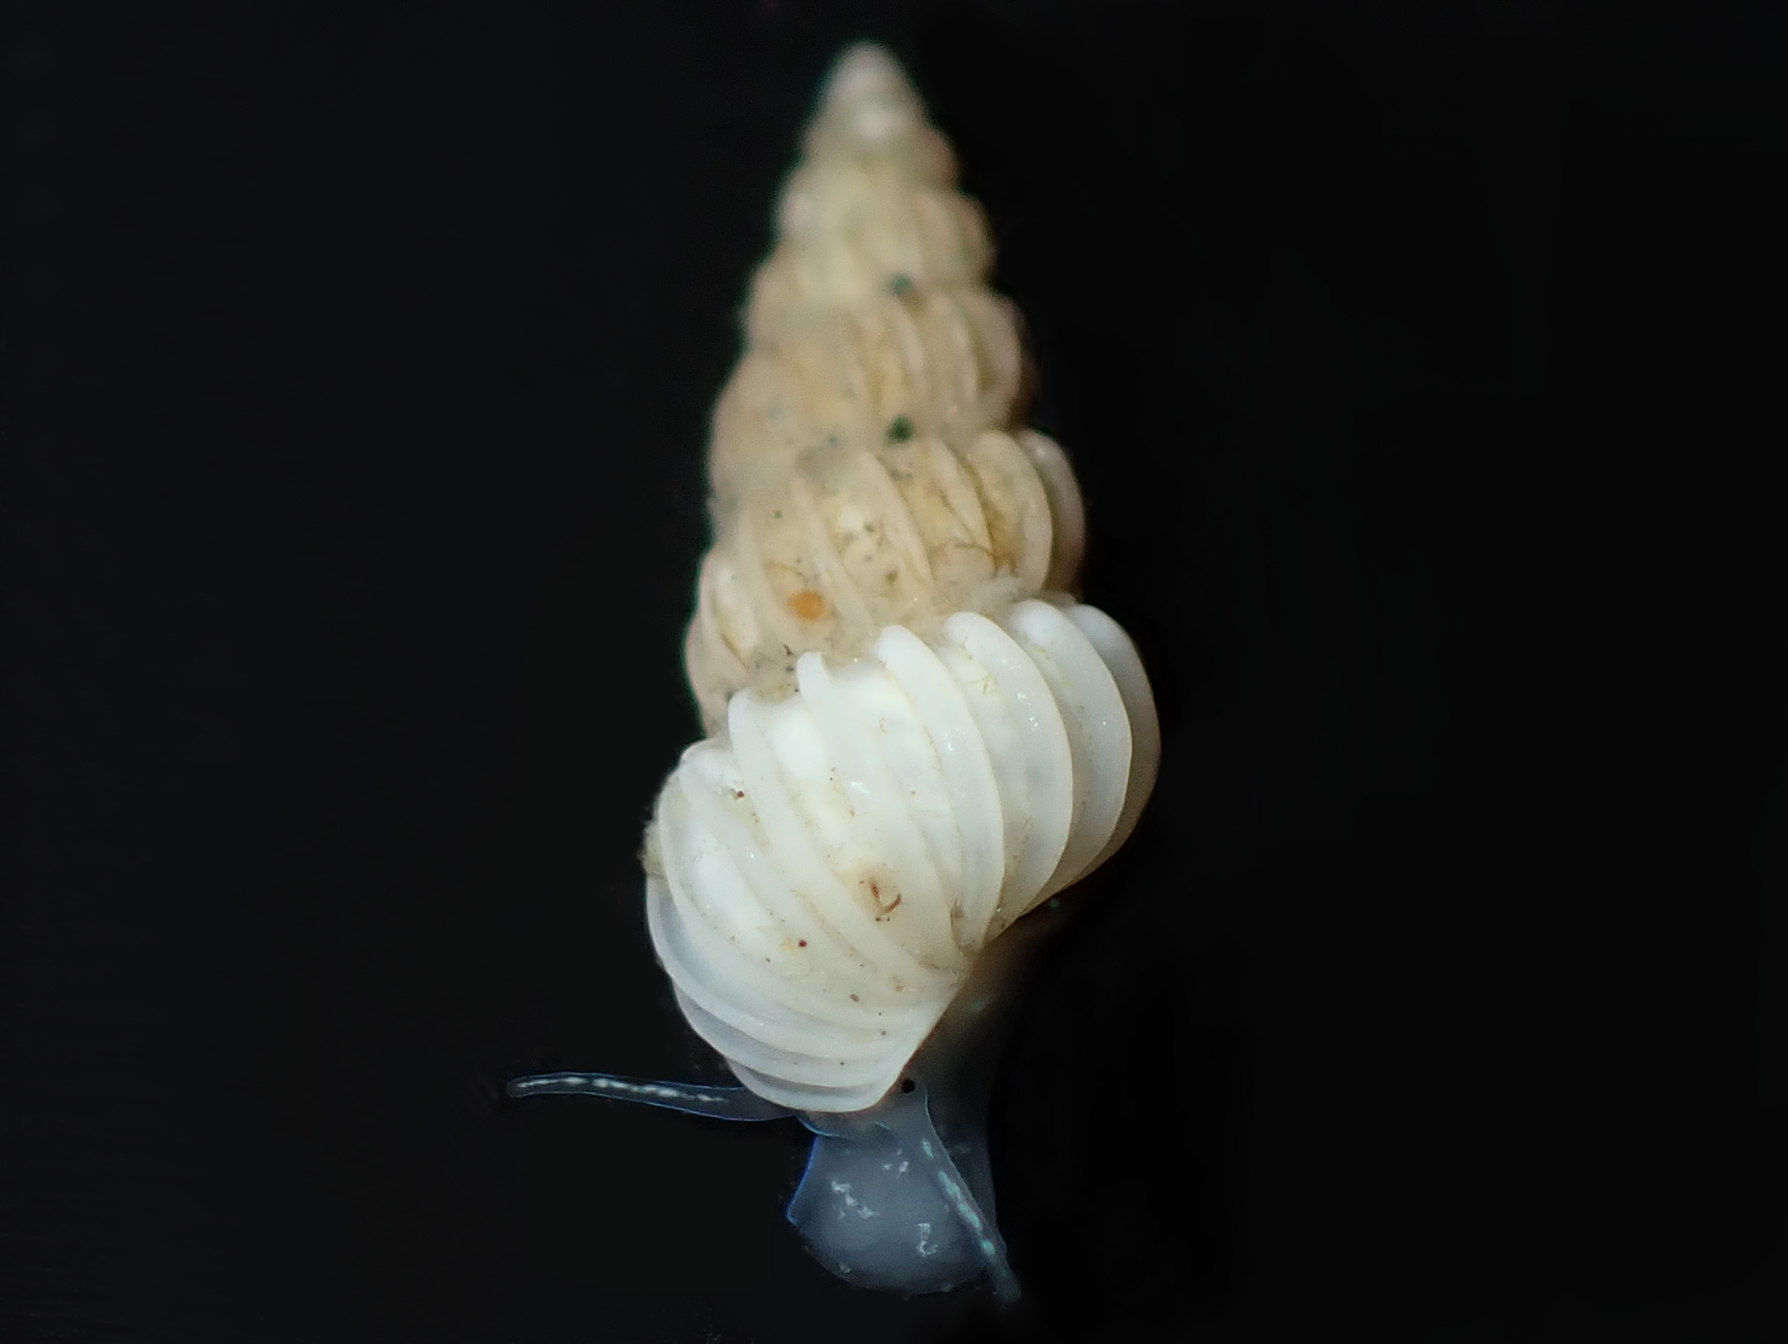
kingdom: Animalia
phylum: Mollusca
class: Gastropoda
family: Epitoniidae
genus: Epitonium
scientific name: Epitonium jukesianum
